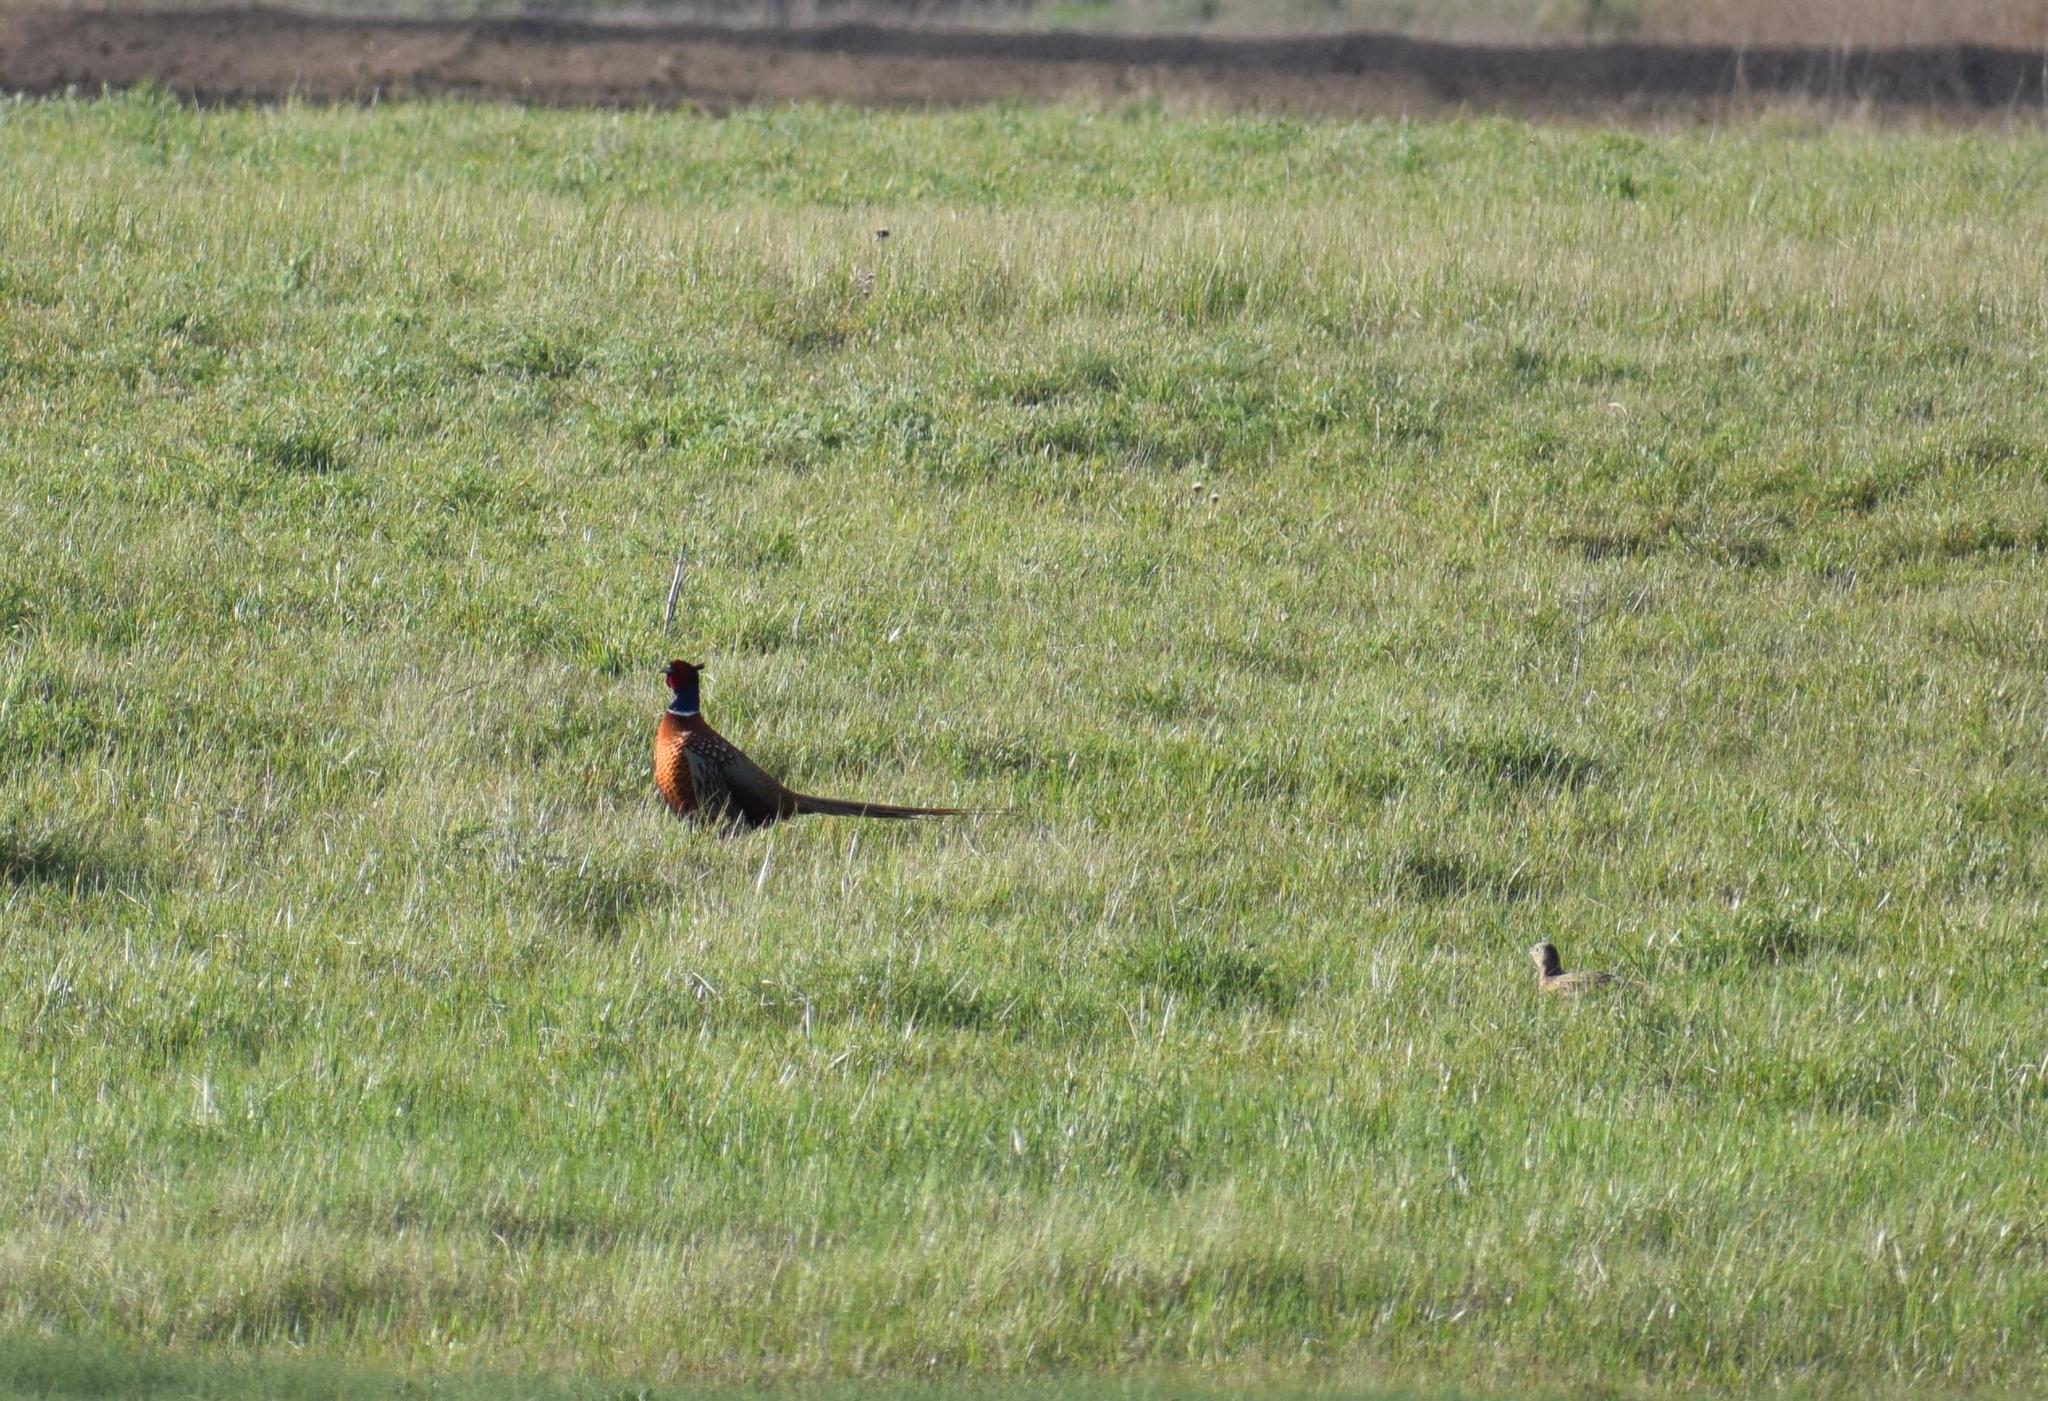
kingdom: Animalia
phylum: Chordata
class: Aves
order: Galliformes
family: Phasianidae
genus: Phasianus
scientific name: Phasianus colchicus
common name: Common pheasant
